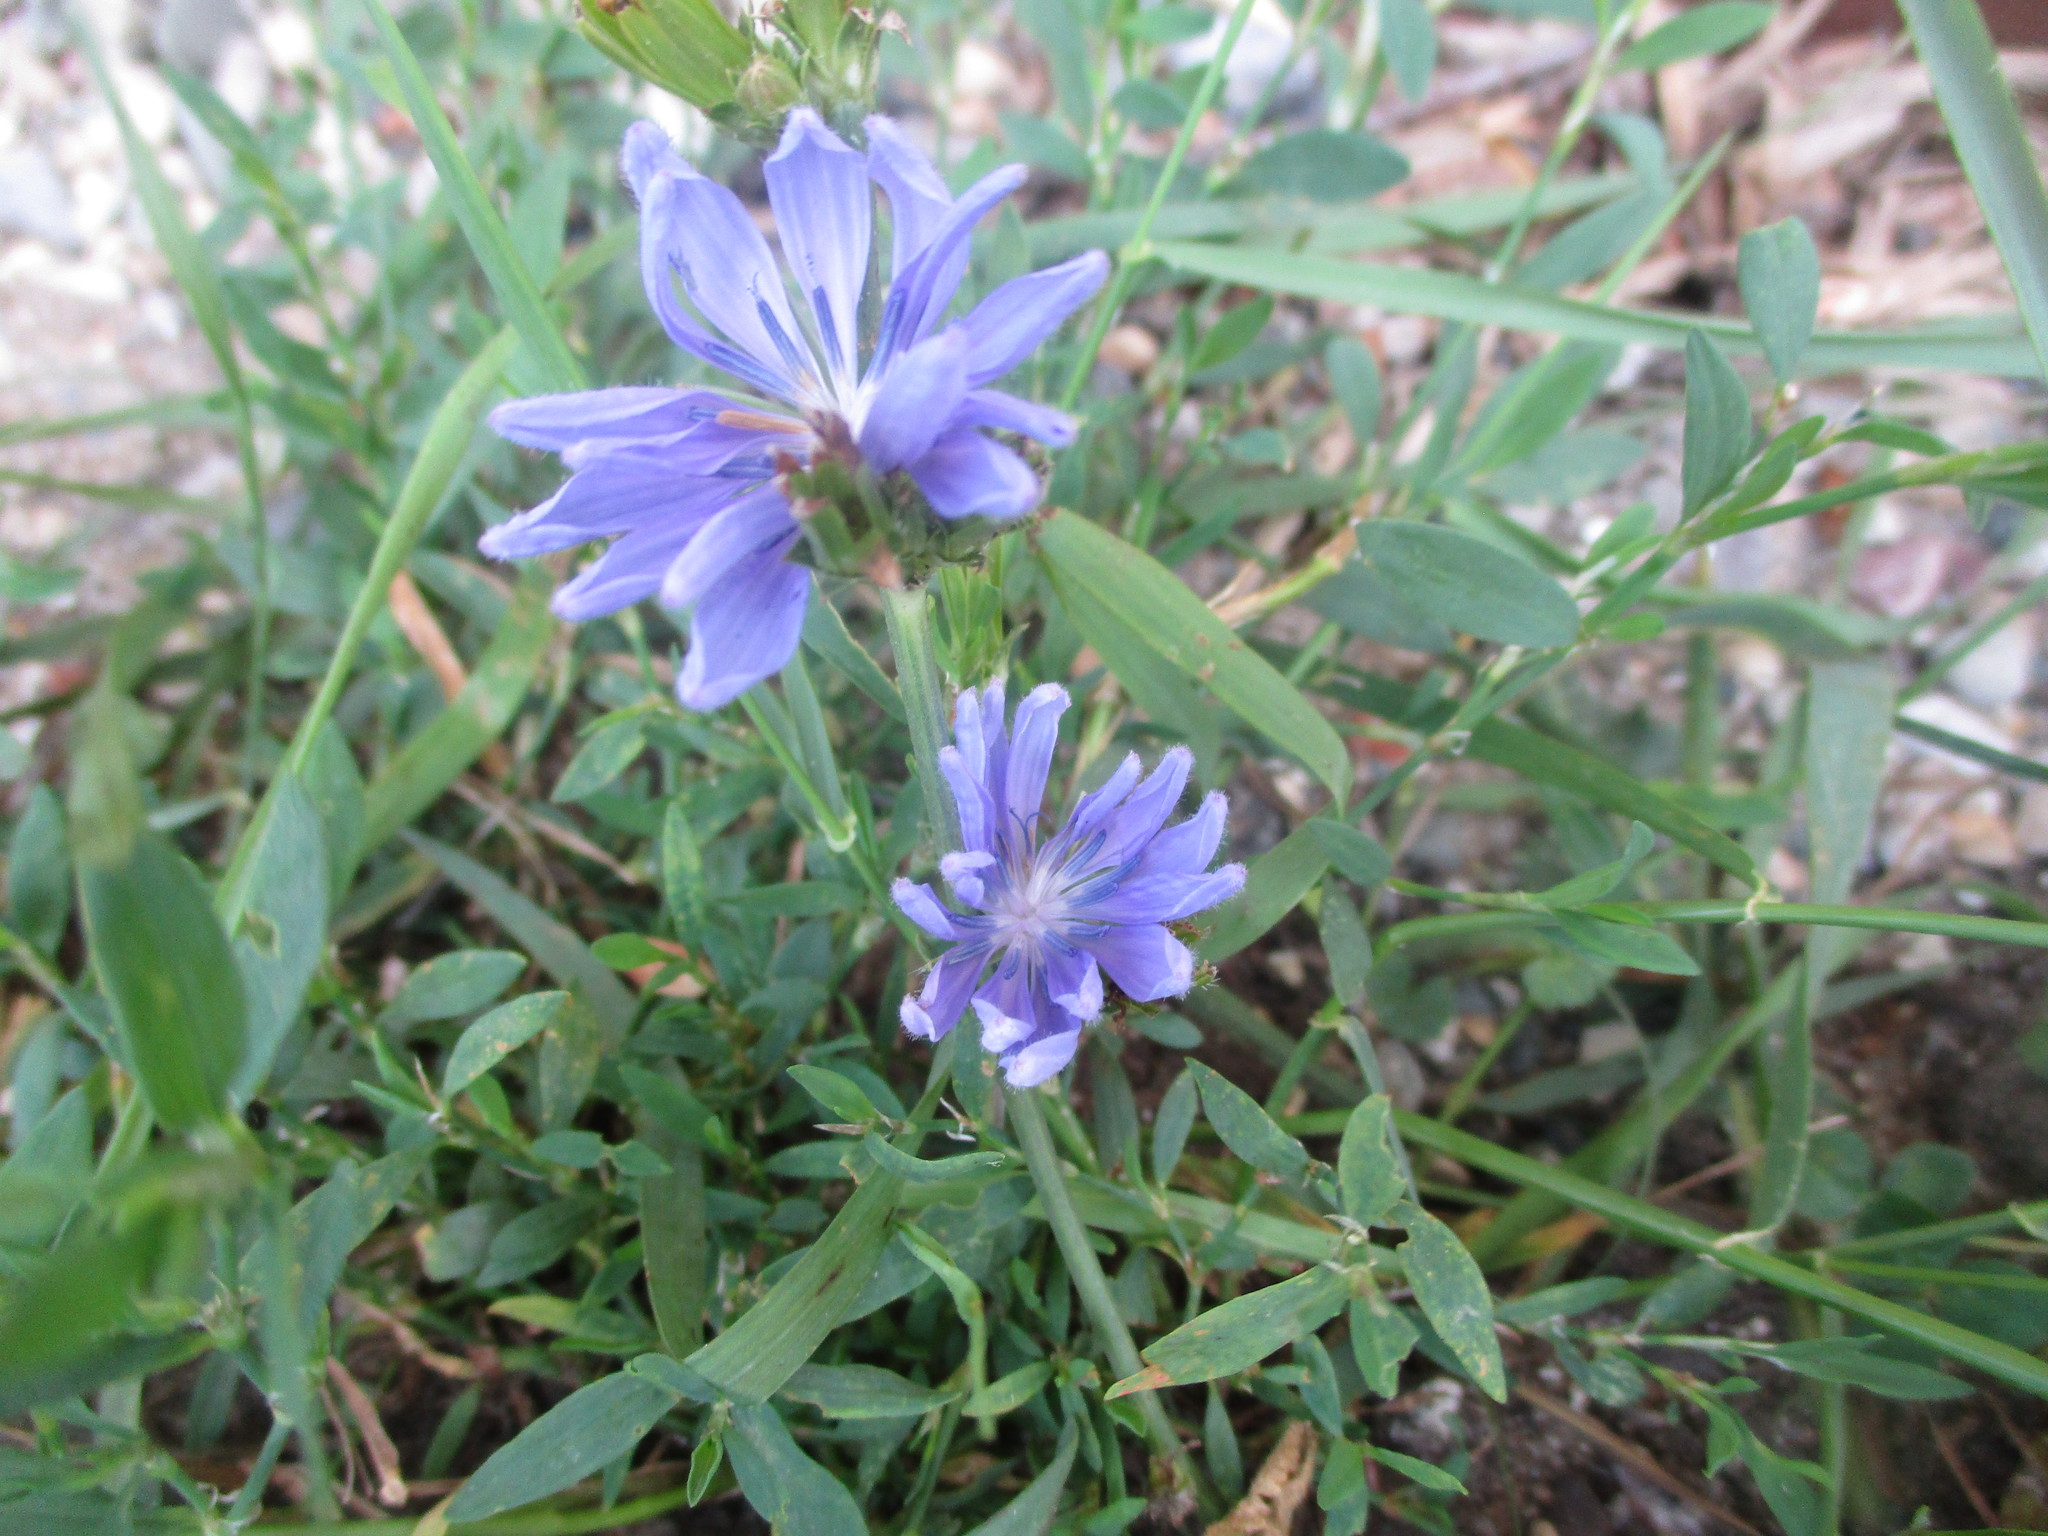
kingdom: Plantae
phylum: Tracheophyta
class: Magnoliopsida
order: Asterales
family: Asteraceae
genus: Cichorium
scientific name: Cichorium intybus
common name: Chicory
